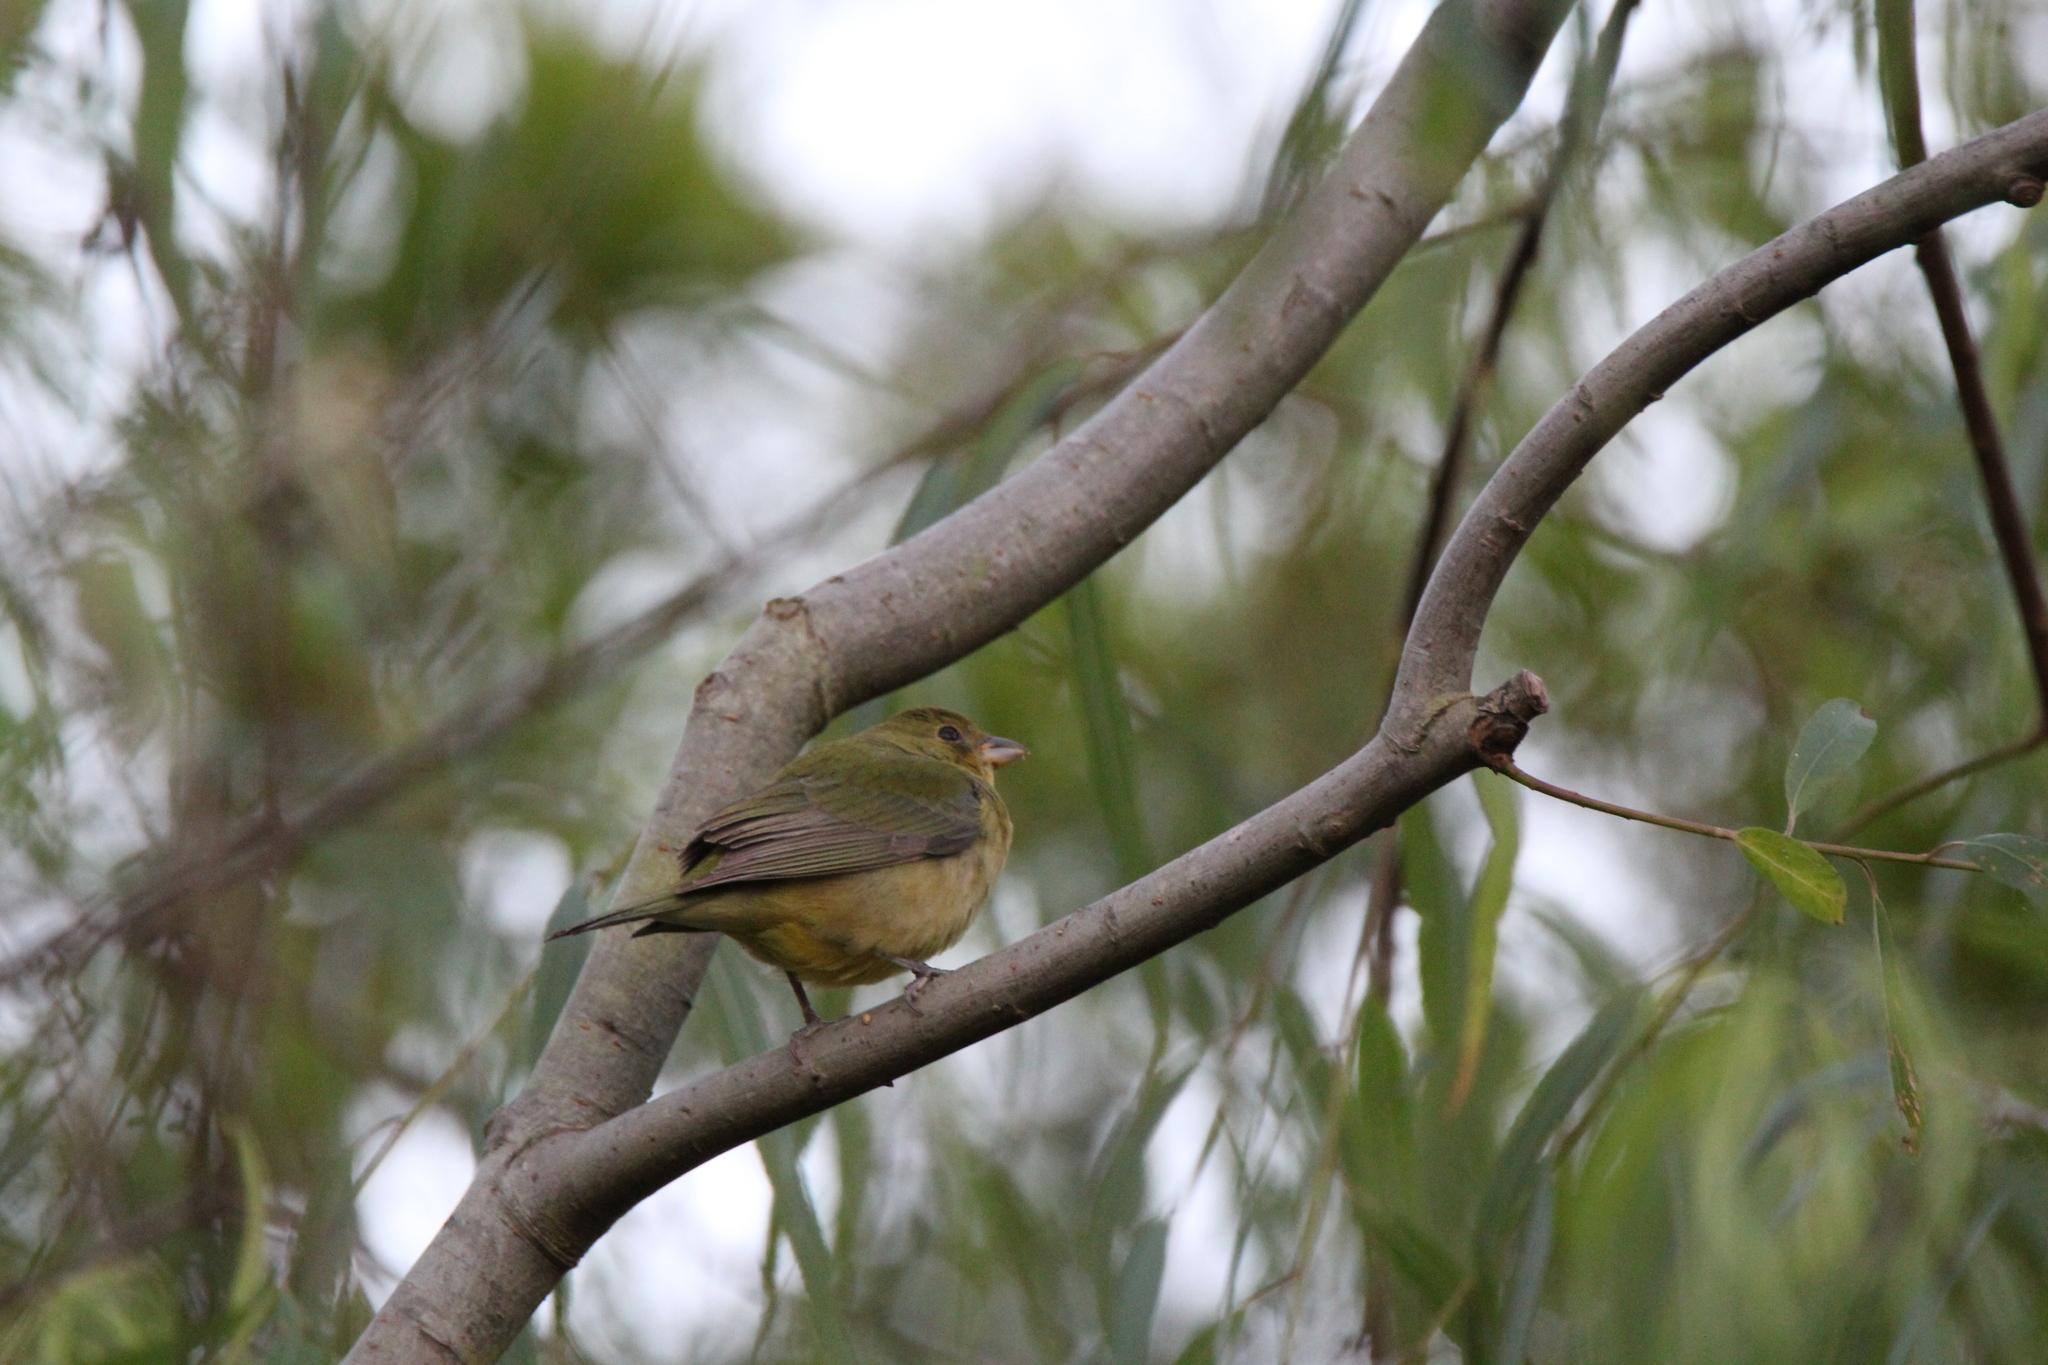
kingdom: Animalia
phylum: Chordata
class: Aves
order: Passeriformes
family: Cardinalidae
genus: Passerina
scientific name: Passerina ciris
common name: Painted bunting
